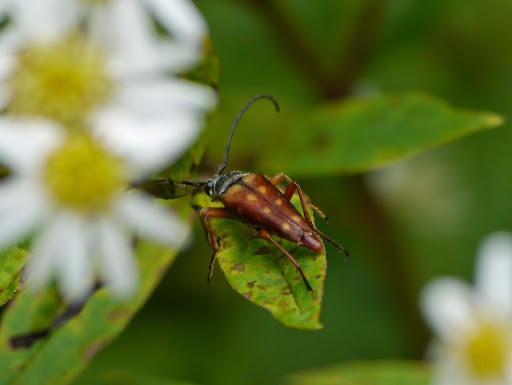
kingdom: Animalia
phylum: Arthropoda
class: Insecta
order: Coleoptera
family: Cerambycidae
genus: Typocerus
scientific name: Typocerus velutinus
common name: Banded longhorn beetle
